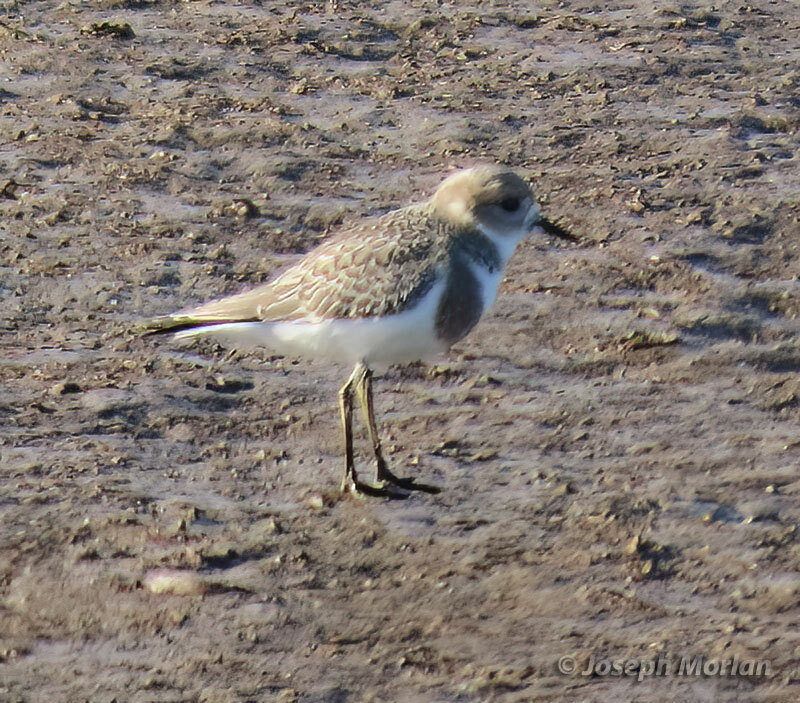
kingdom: Animalia
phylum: Chordata
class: Aves
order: Charadriiformes
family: Charadriidae
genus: Anarhynchus
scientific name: Anarhynchus
